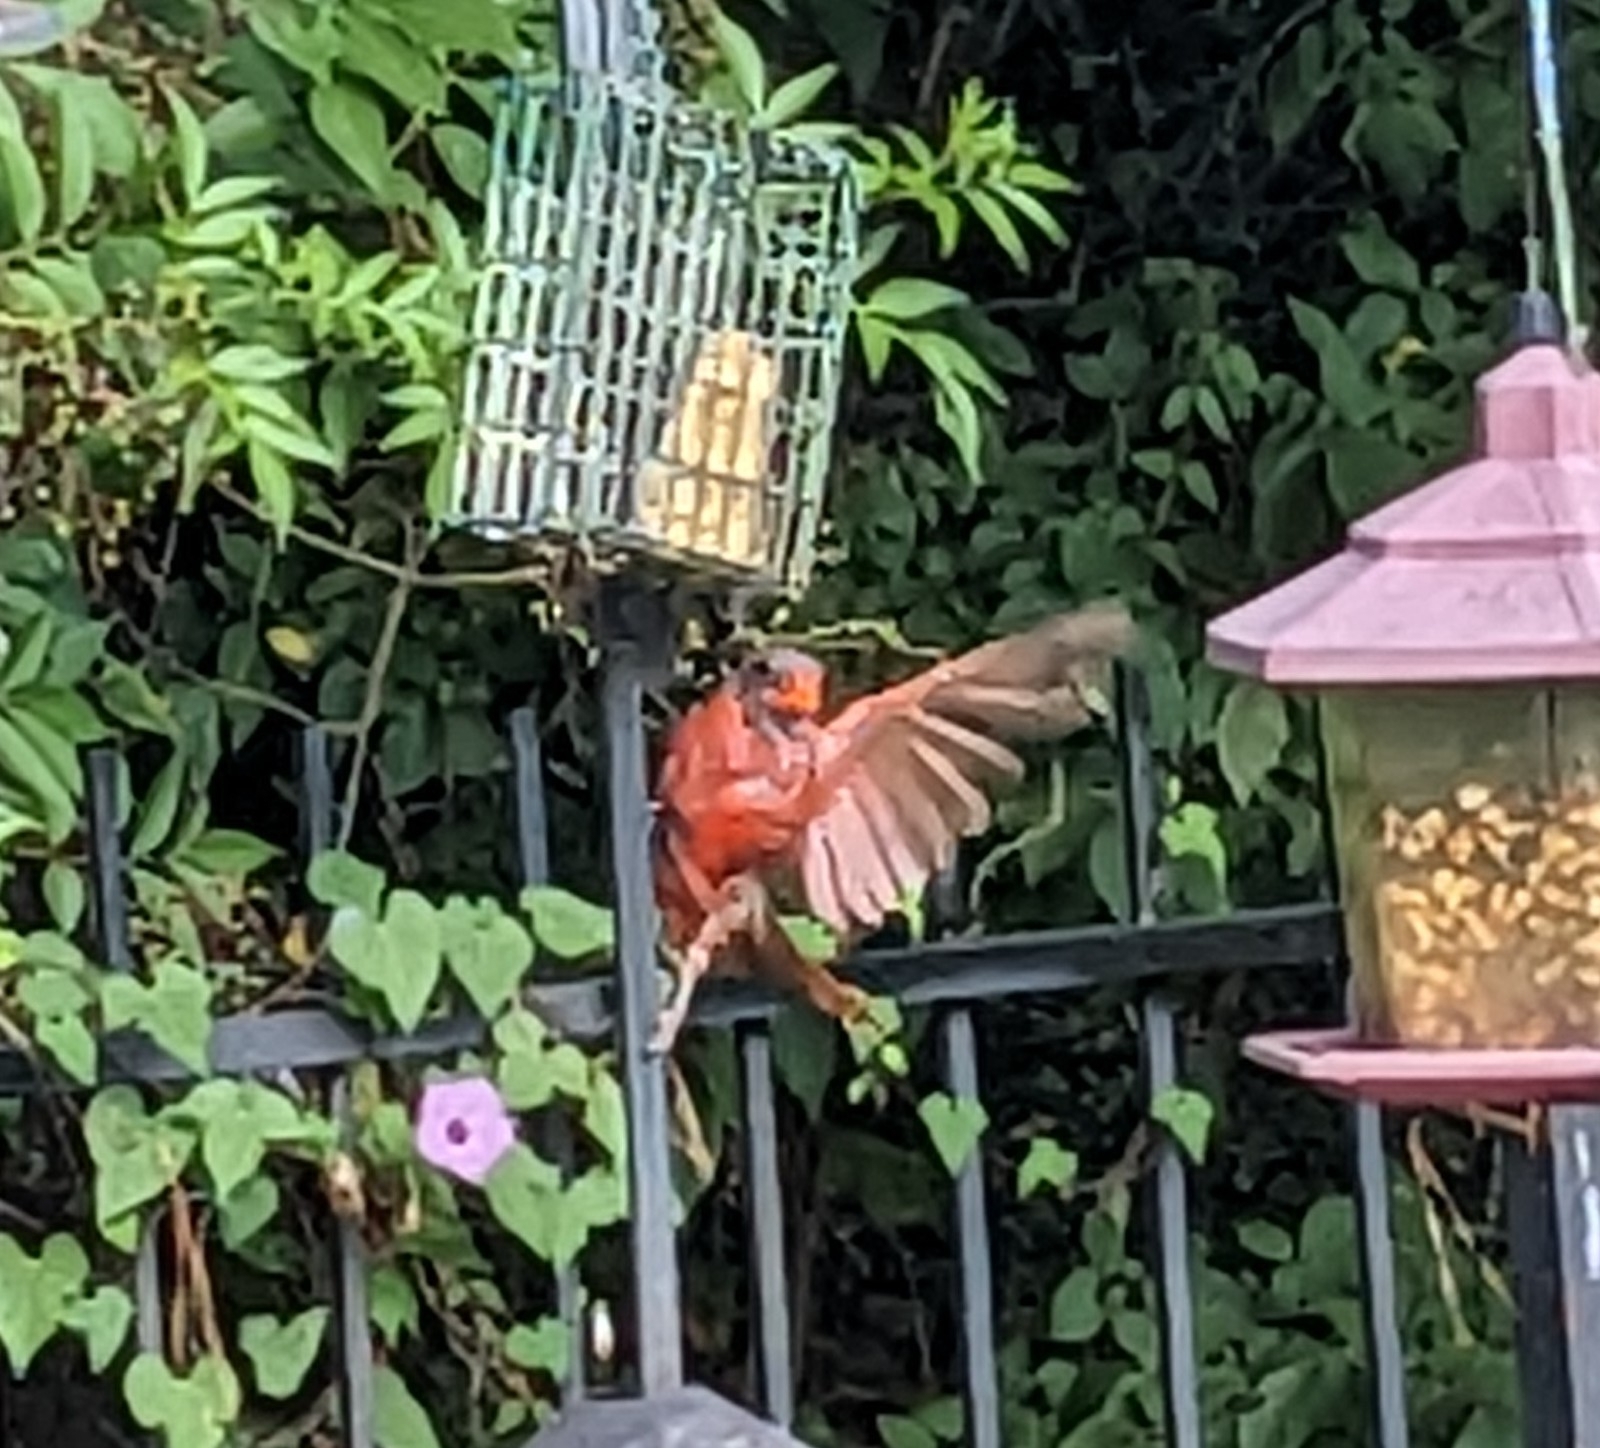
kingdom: Animalia
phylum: Chordata
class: Aves
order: Passeriformes
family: Cardinalidae
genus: Cardinalis
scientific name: Cardinalis cardinalis
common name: Northern cardinal
